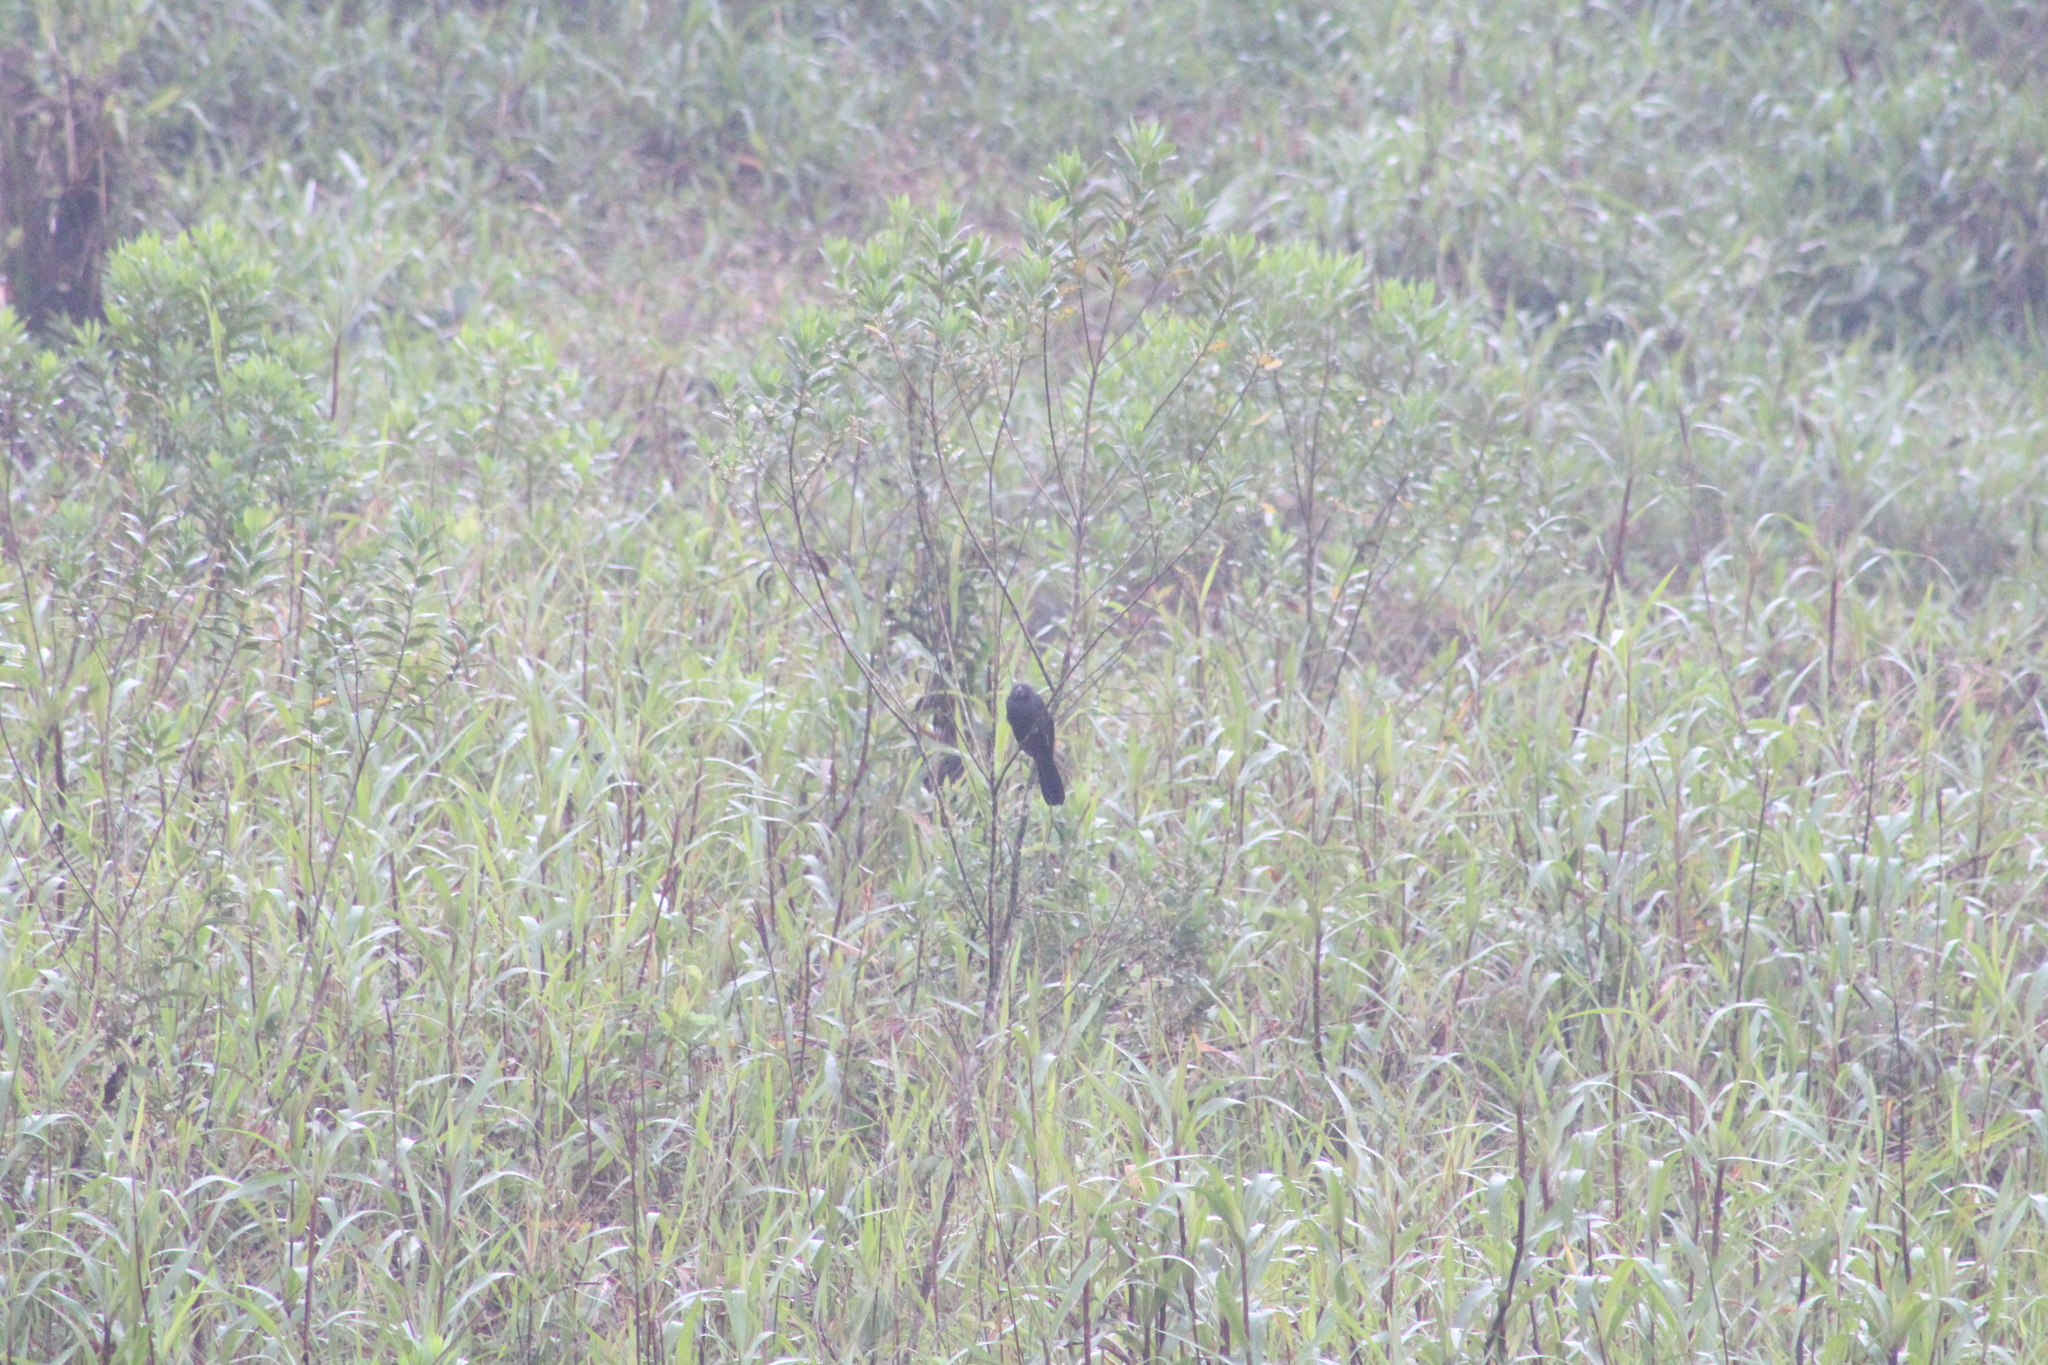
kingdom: Animalia
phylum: Chordata
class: Aves
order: Cuculiformes
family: Cuculidae
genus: Crotophaga
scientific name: Crotophaga ani
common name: Smooth-billed ani
